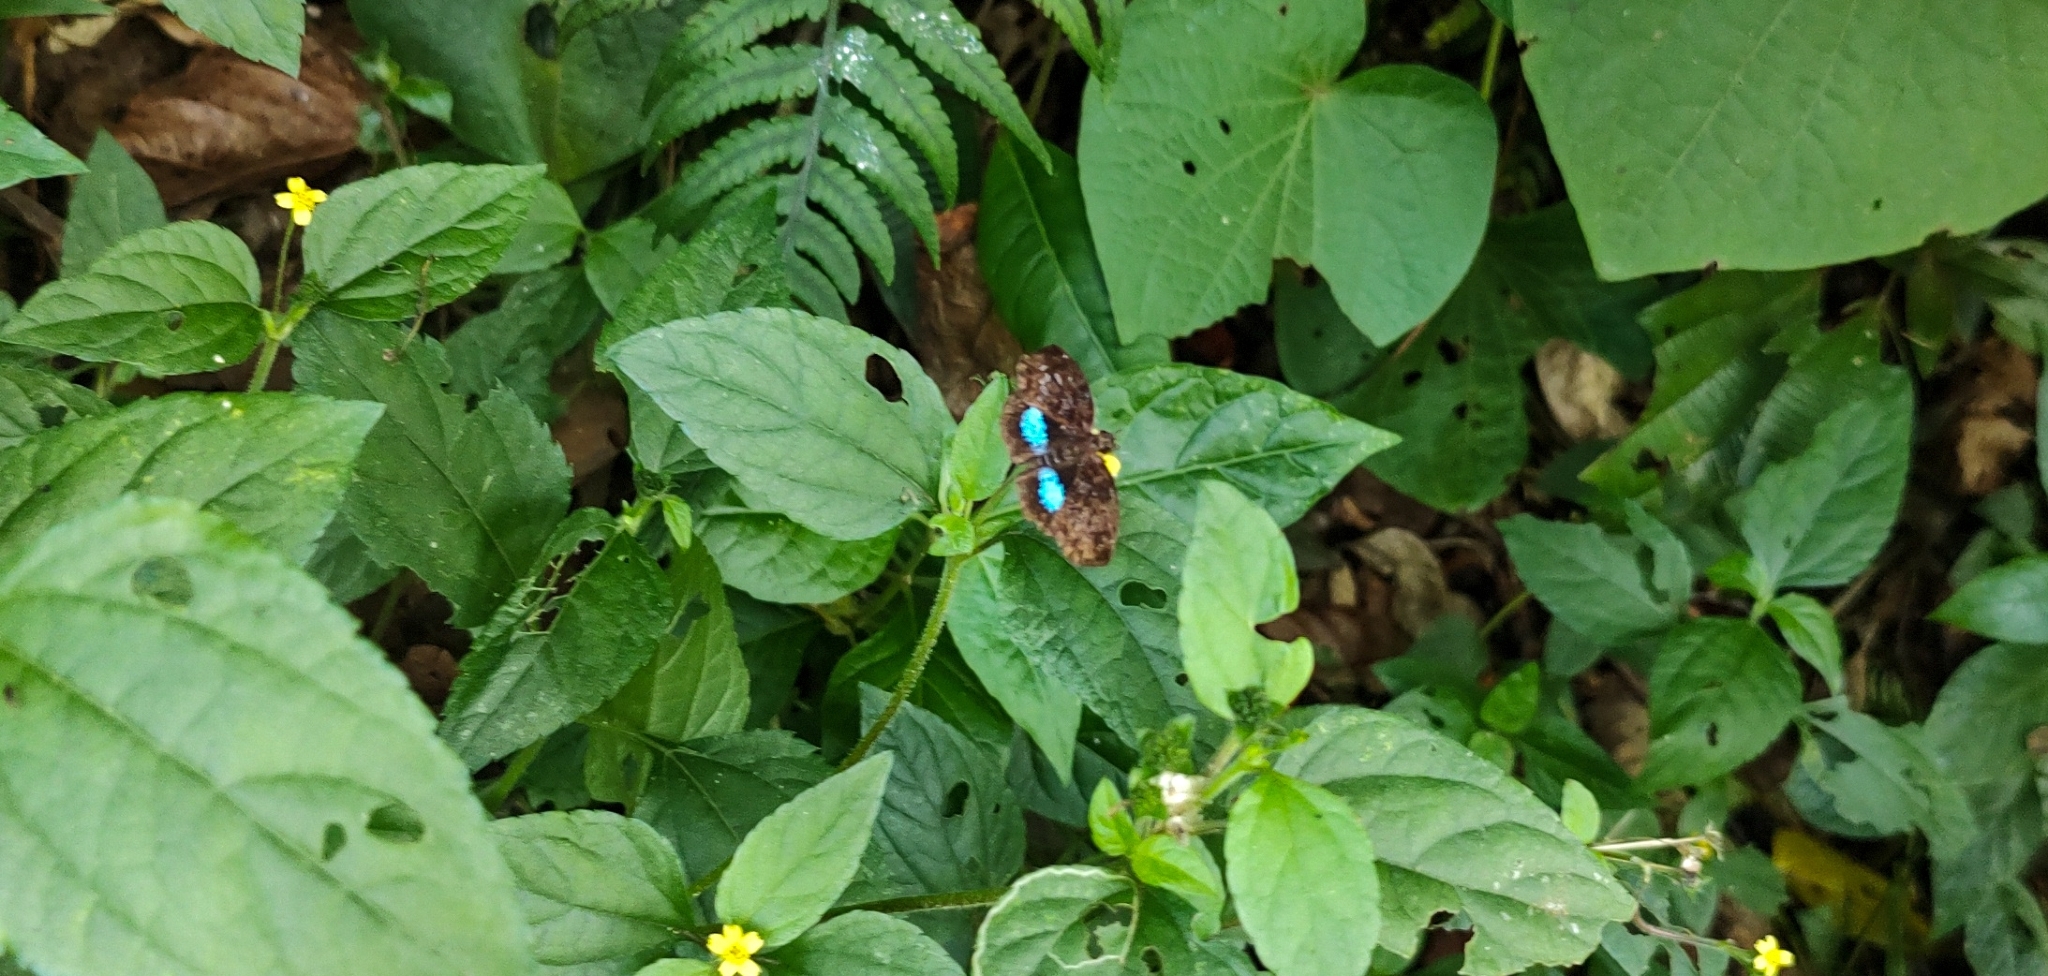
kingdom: Animalia
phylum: Arthropoda
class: Insecta
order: Lepidoptera
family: Hesperiidae
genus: Sostrata
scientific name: Sostrata
